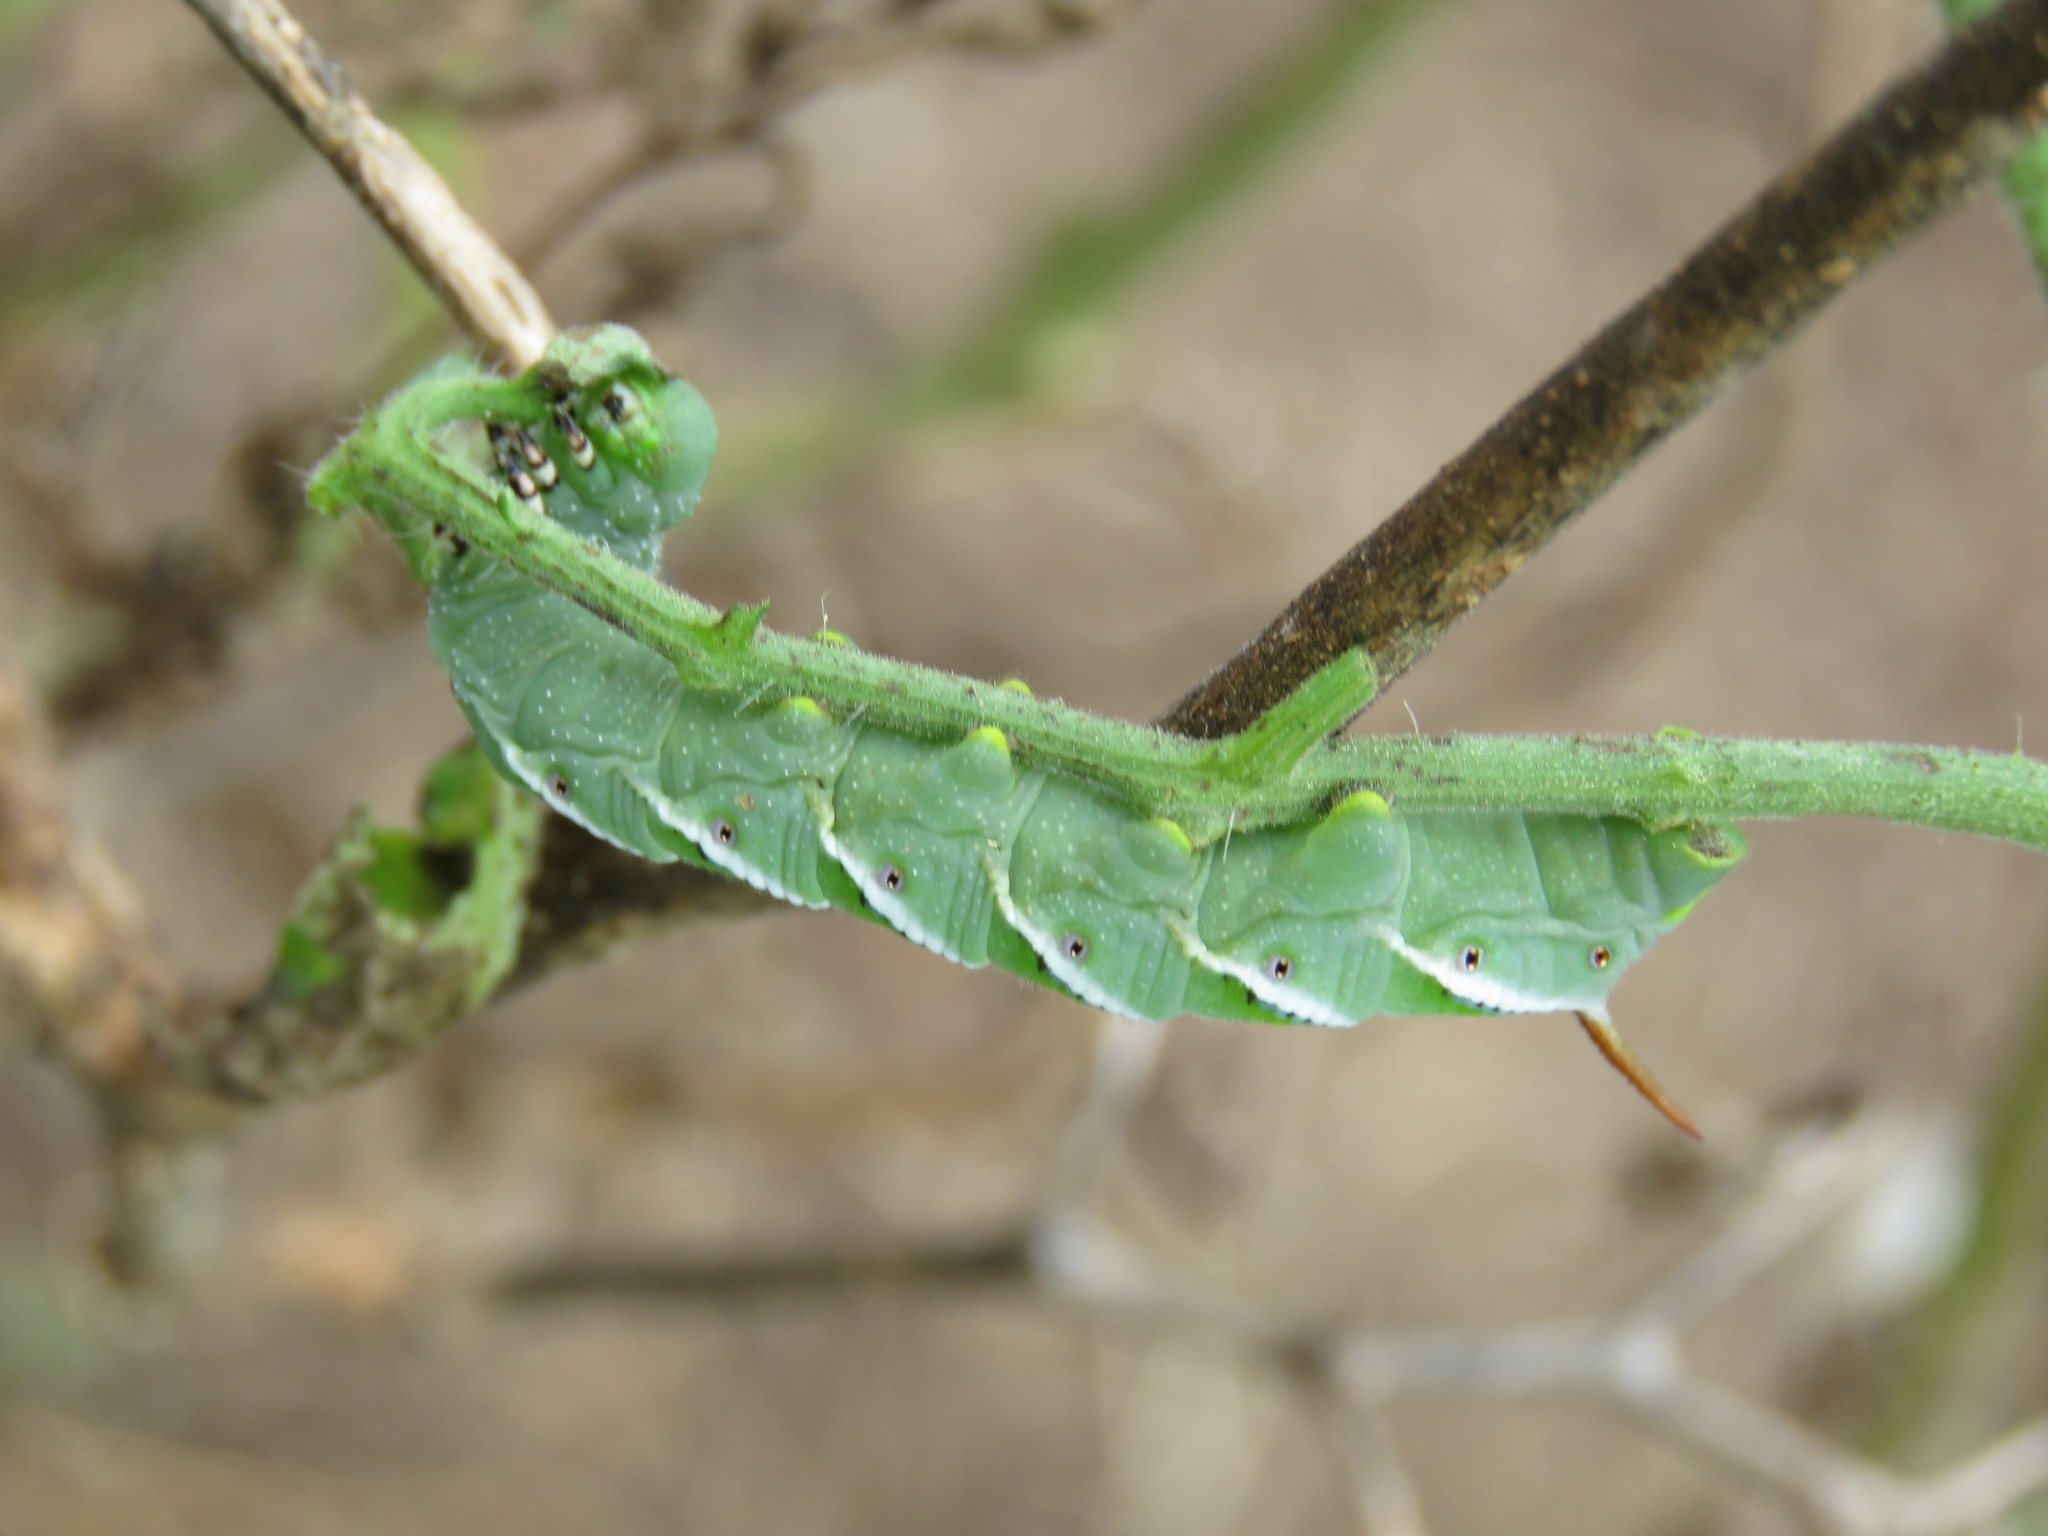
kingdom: Animalia
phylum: Arthropoda
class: Insecta
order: Lepidoptera
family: Sphingidae
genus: Manduca
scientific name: Manduca sexta
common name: Carolina sphinx
